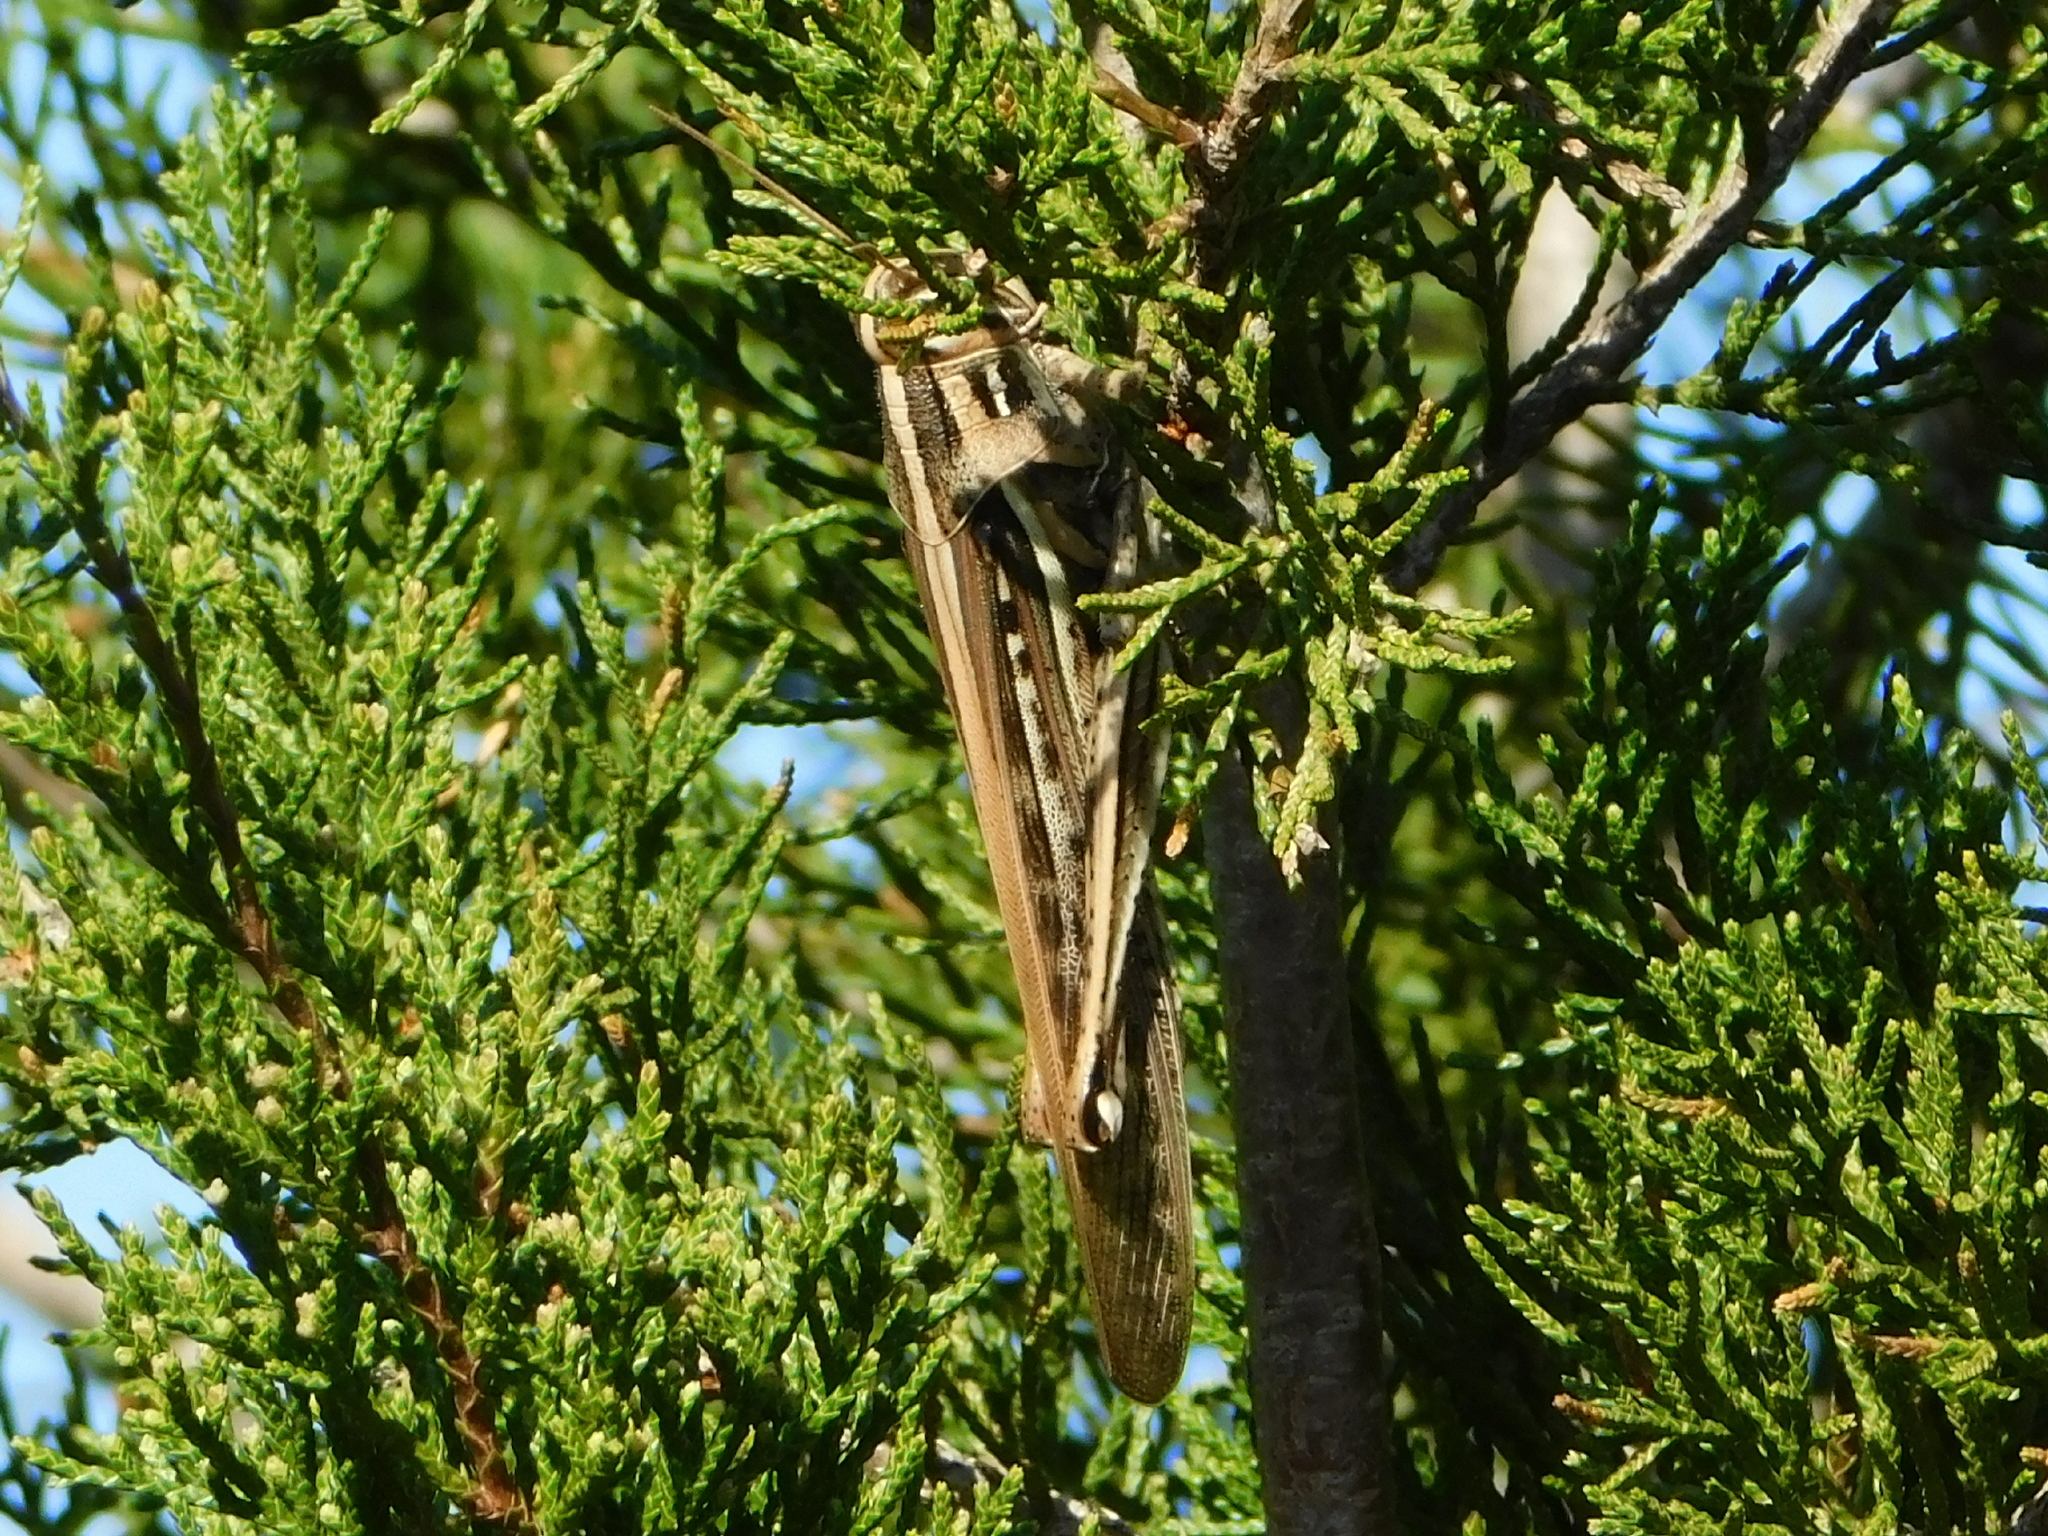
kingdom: Animalia
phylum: Arthropoda
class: Insecta
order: Orthoptera
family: Acrididae
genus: Schistocerca
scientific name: Schistocerca americana
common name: American bird locust
